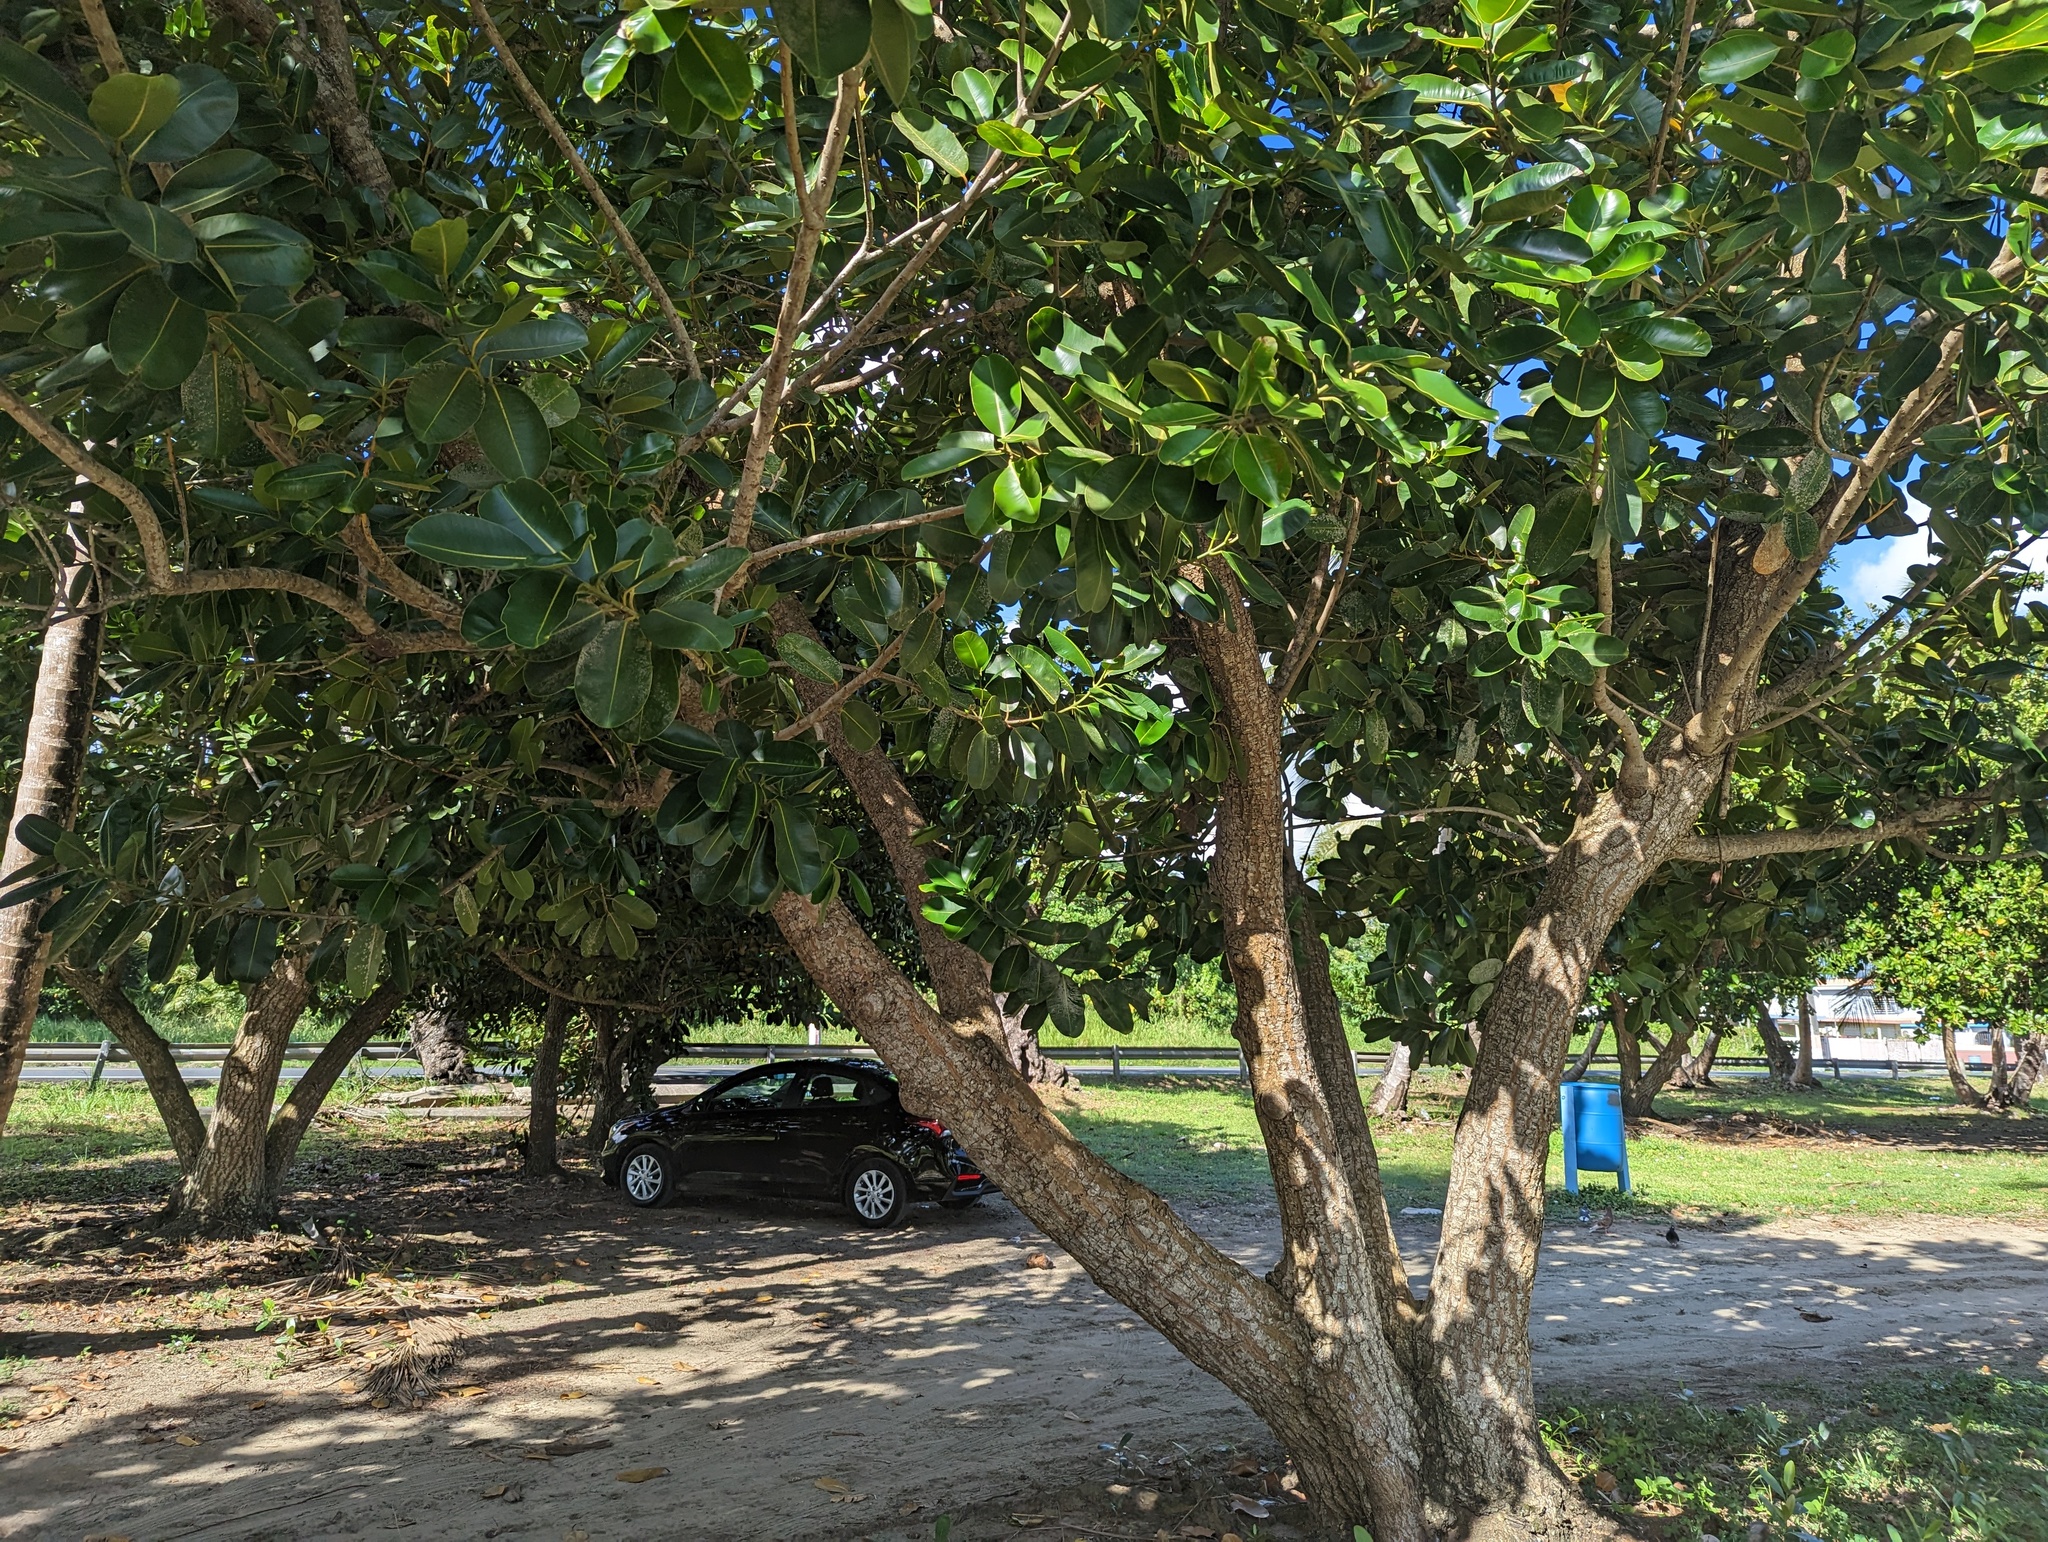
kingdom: Plantae
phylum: Tracheophyta
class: Magnoliopsida
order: Malpighiales
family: Calophyllaceae
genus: Calophyllum
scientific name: Calophyllum inophyllum
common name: Alexandrian laurel
